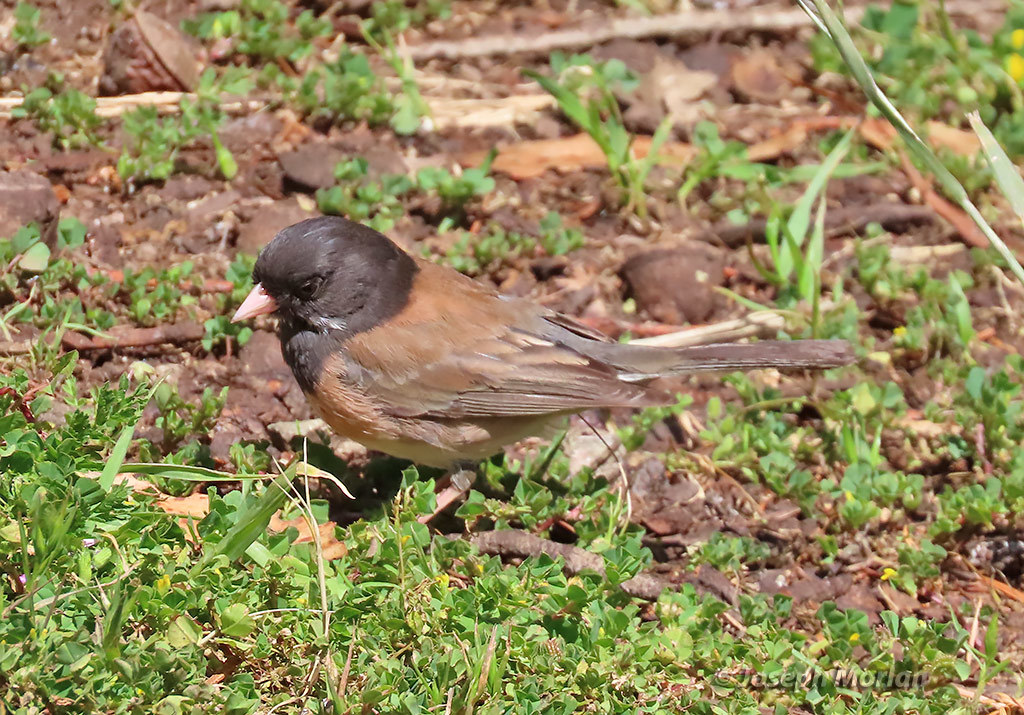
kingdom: Animalia
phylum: Chordata
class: Aves
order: Passeriformes
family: Passerellidae
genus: Junco
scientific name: Junco hyemalis
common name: Dark-eyed junco
